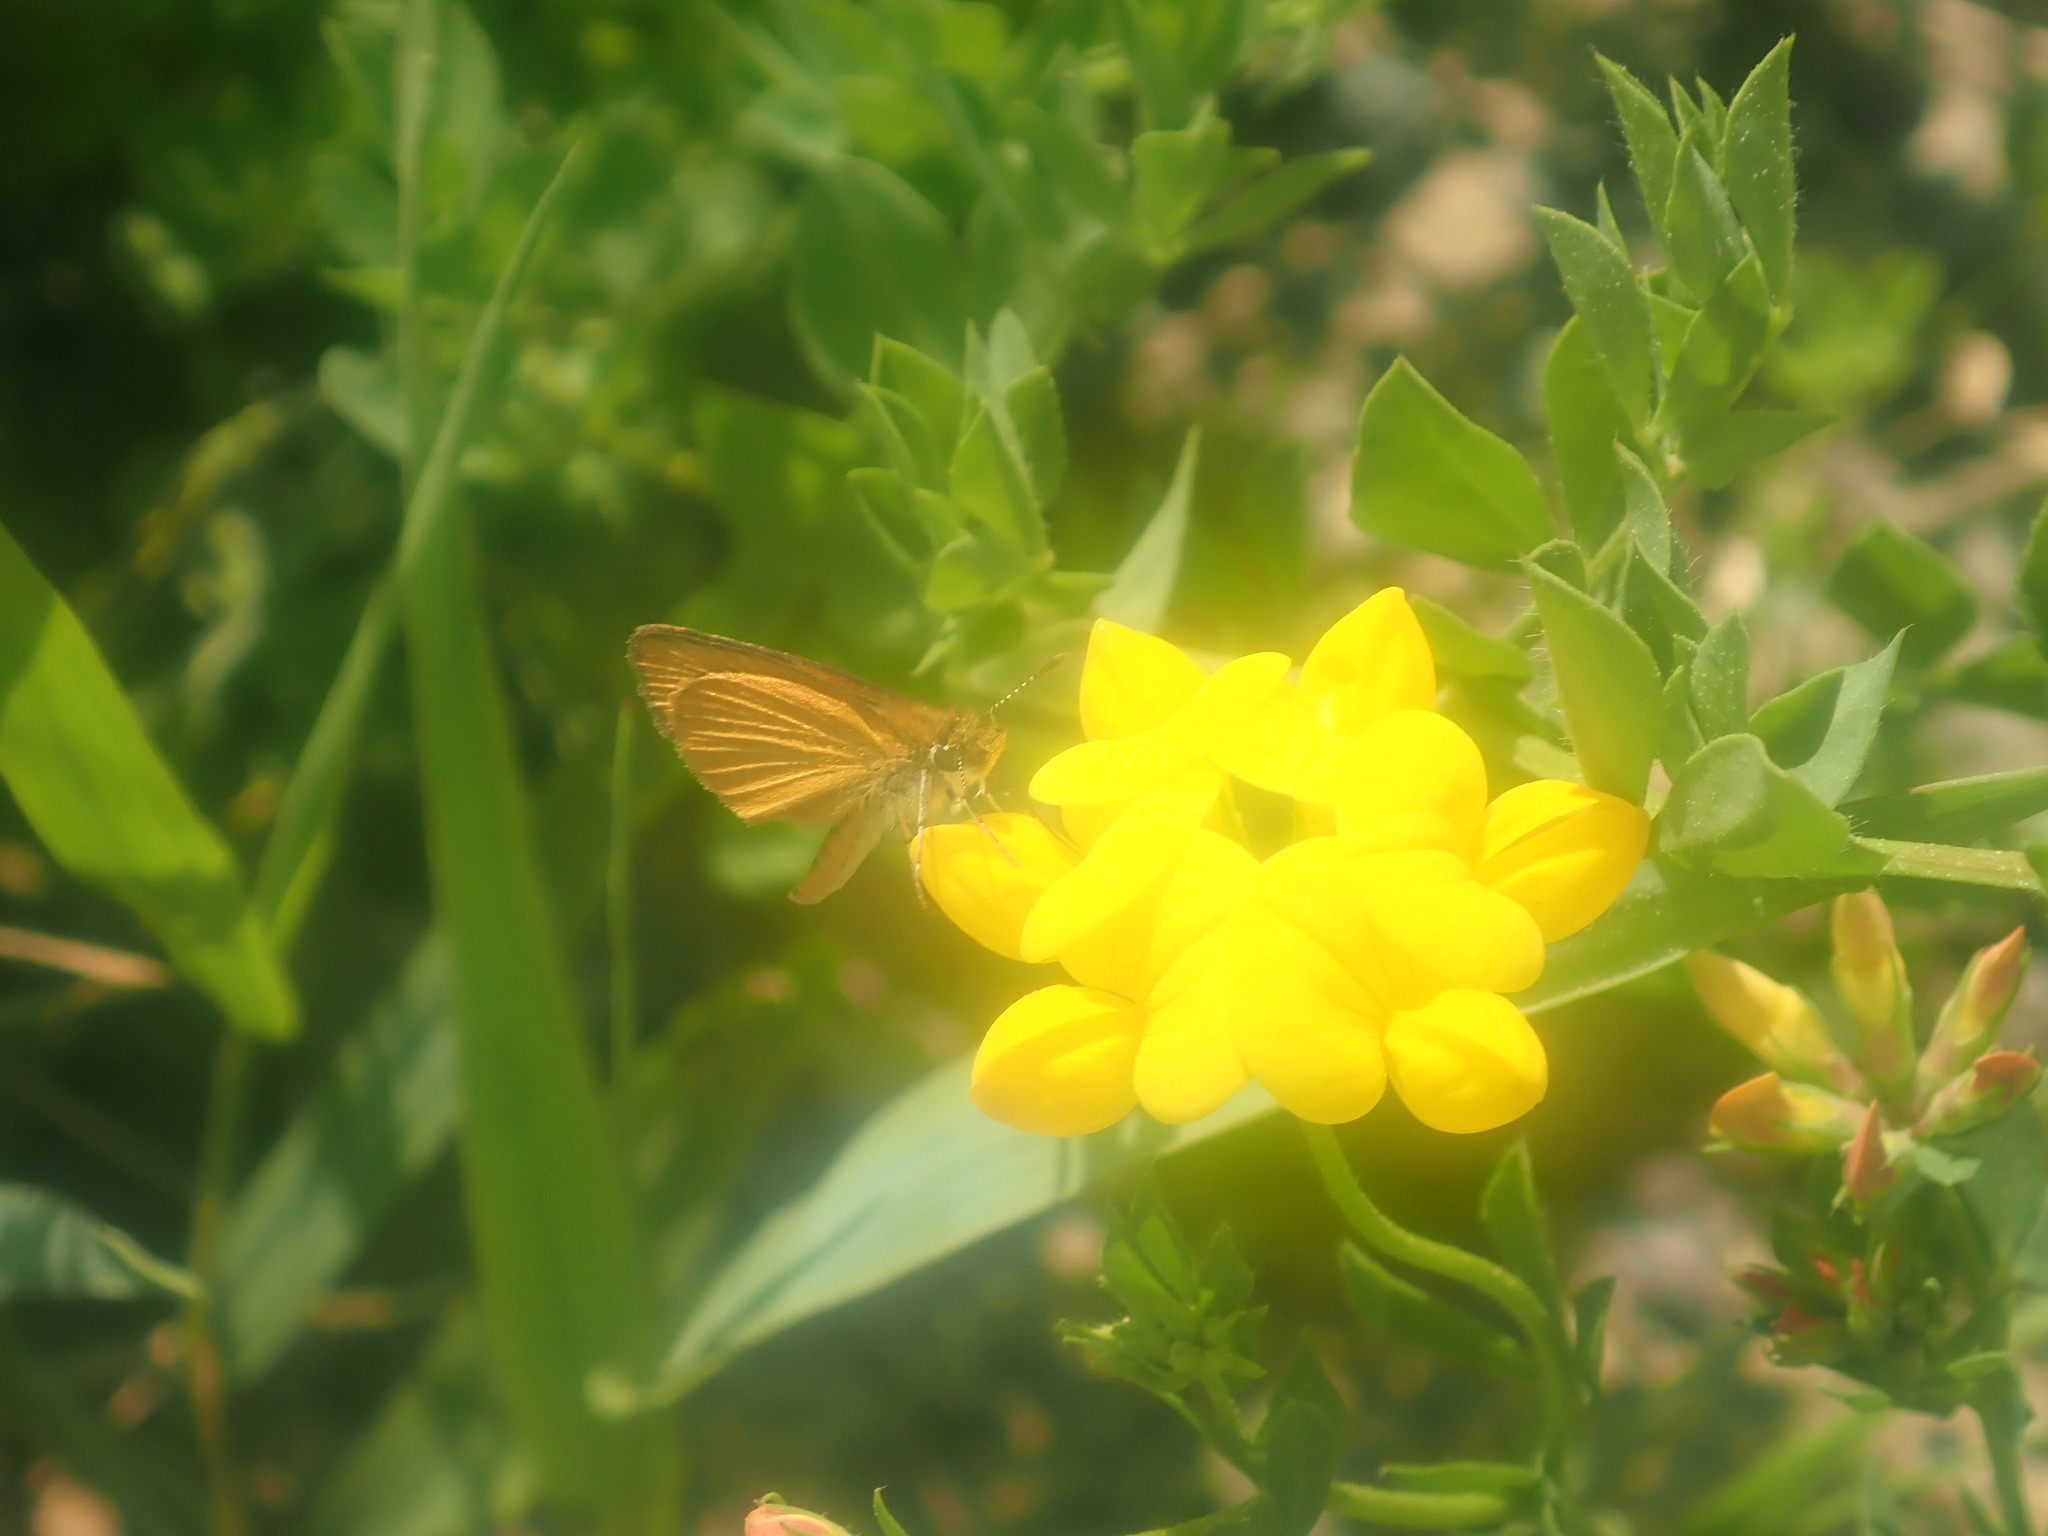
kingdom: Animalia
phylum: Arthropoda
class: Insecta
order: Lepidoptera
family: Hesperiidae
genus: Ancyloxypha
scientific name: Ancyloxypha numitor
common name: Least skipper
